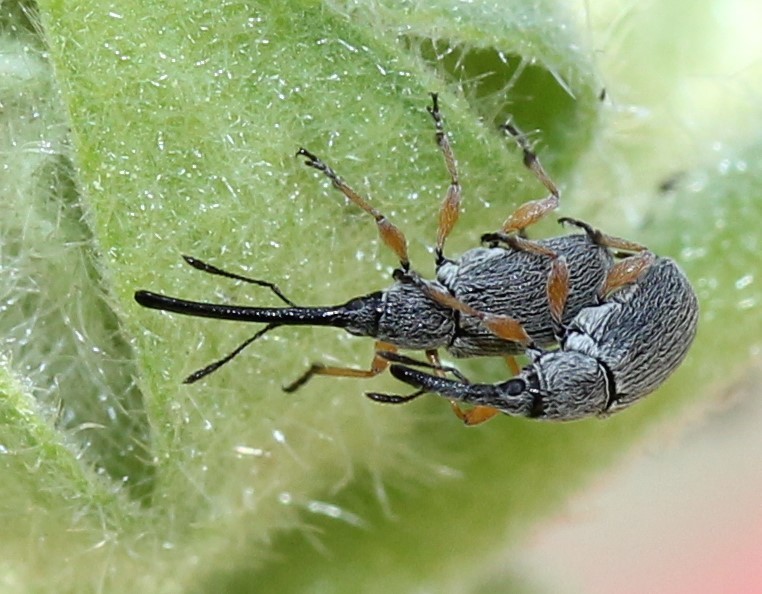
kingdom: Animalia
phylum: Arthropoda
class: Insecta
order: Coleoptera
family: Brentidae
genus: Rhopalapion
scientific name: Rhopalapion longirostre
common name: Hollyhock weevil
